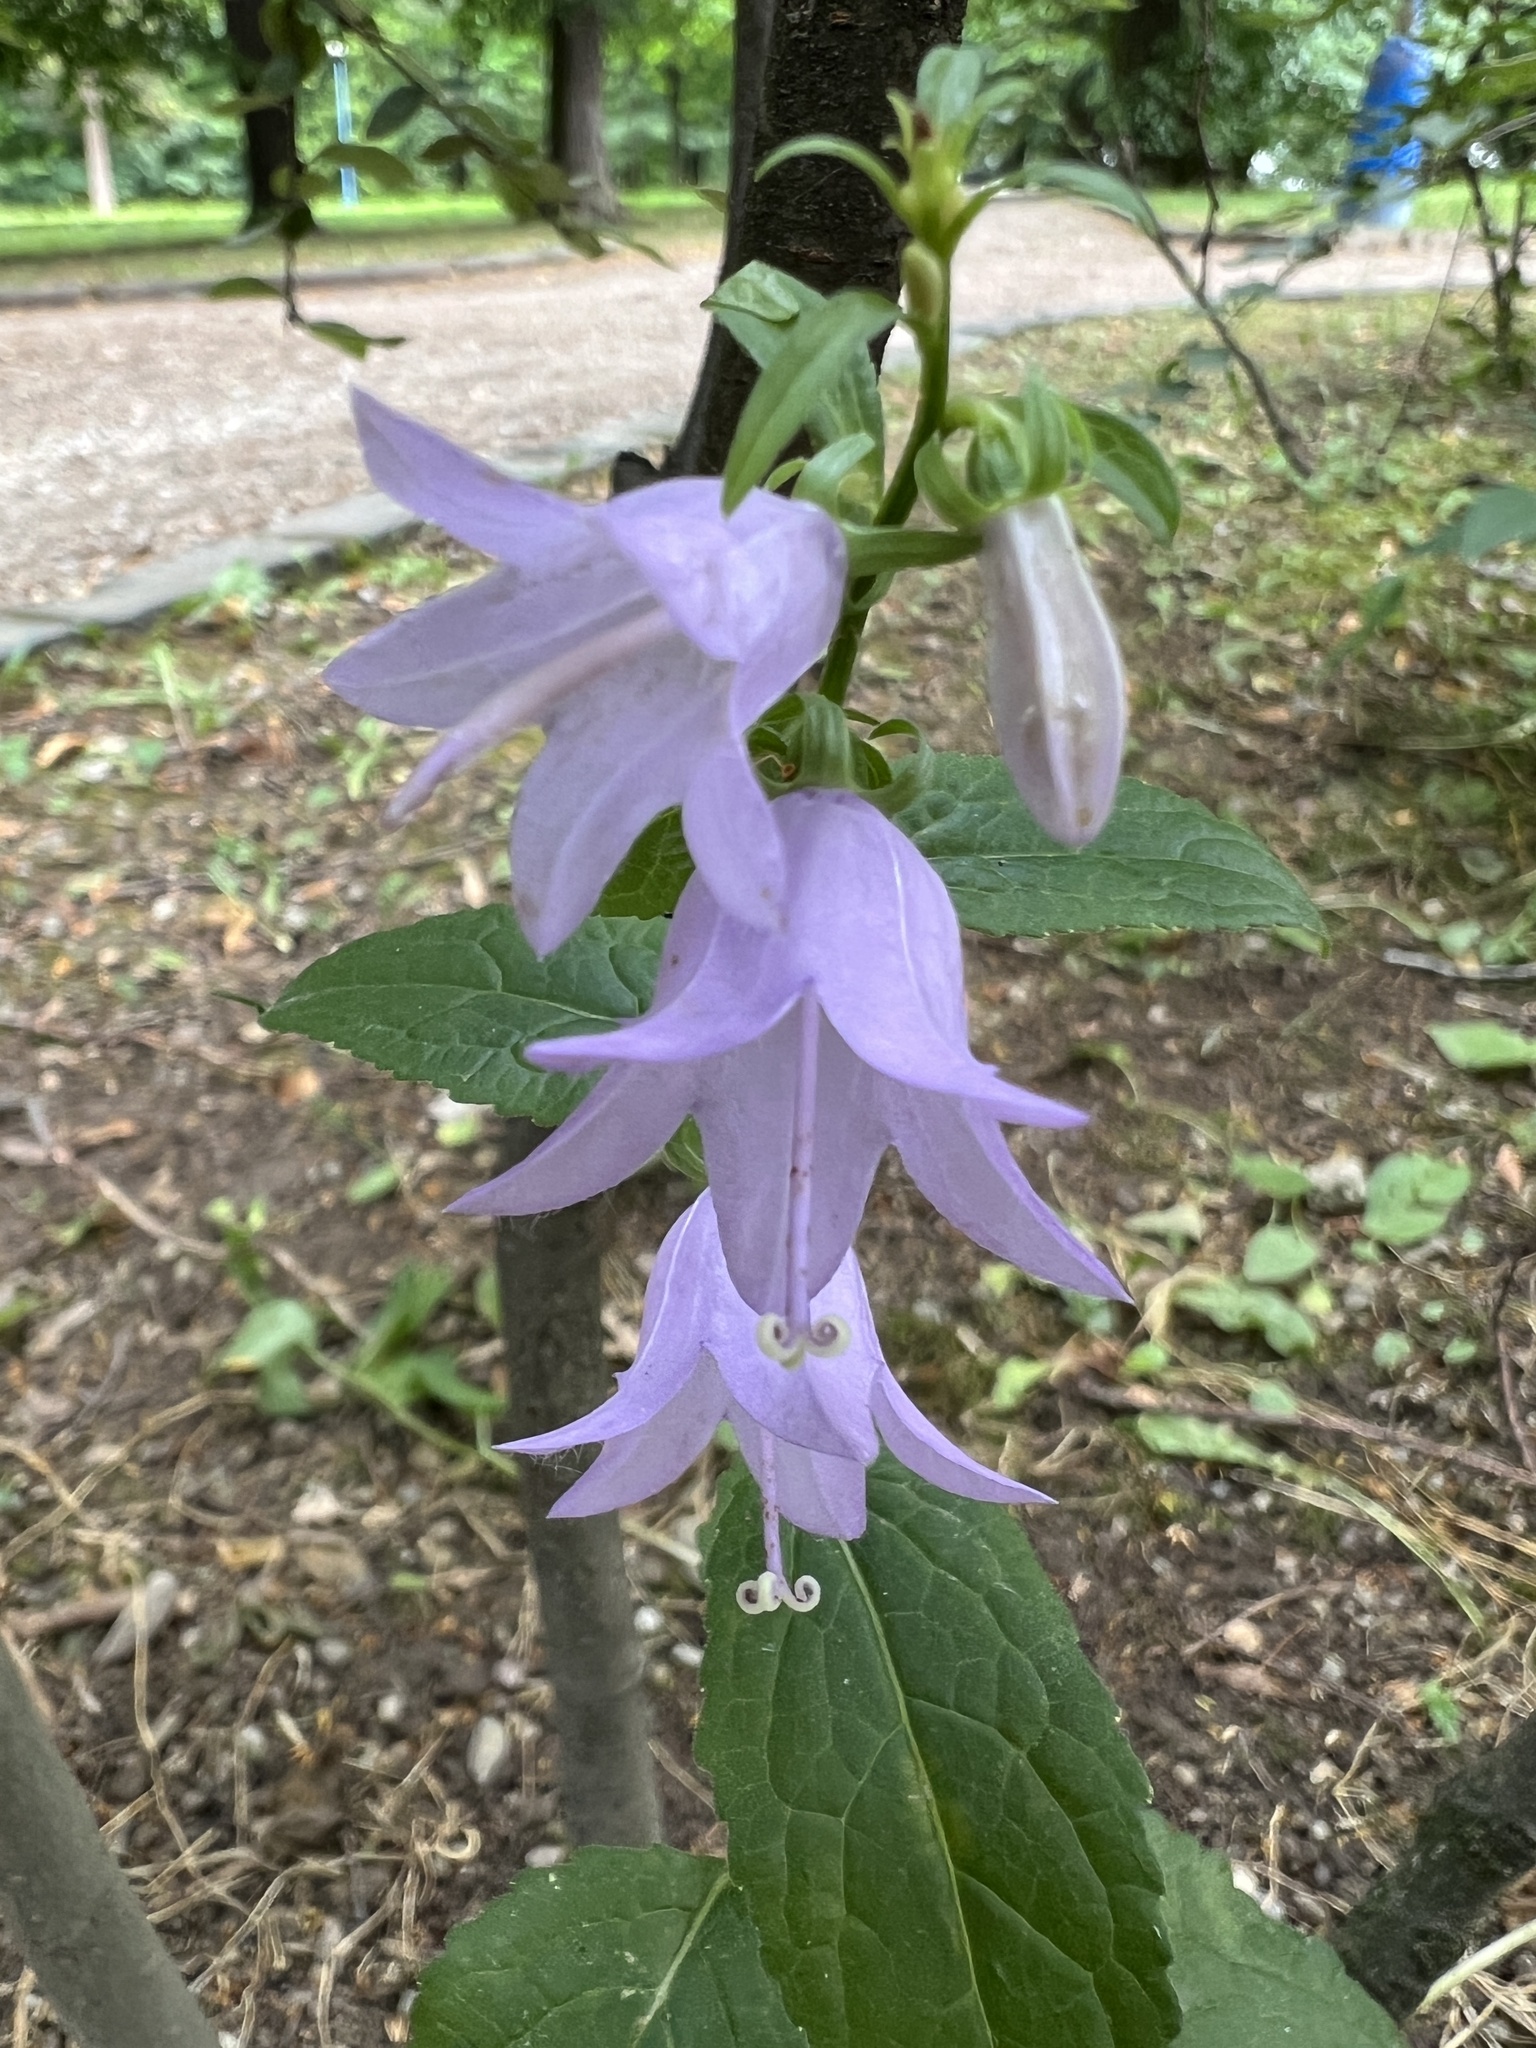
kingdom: Plantae
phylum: Tracheophyta
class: Magnoliopsida
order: Asterales
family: Campanulaceae
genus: Campanula
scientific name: Campanula rapunculoides
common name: Creeping bellflower
